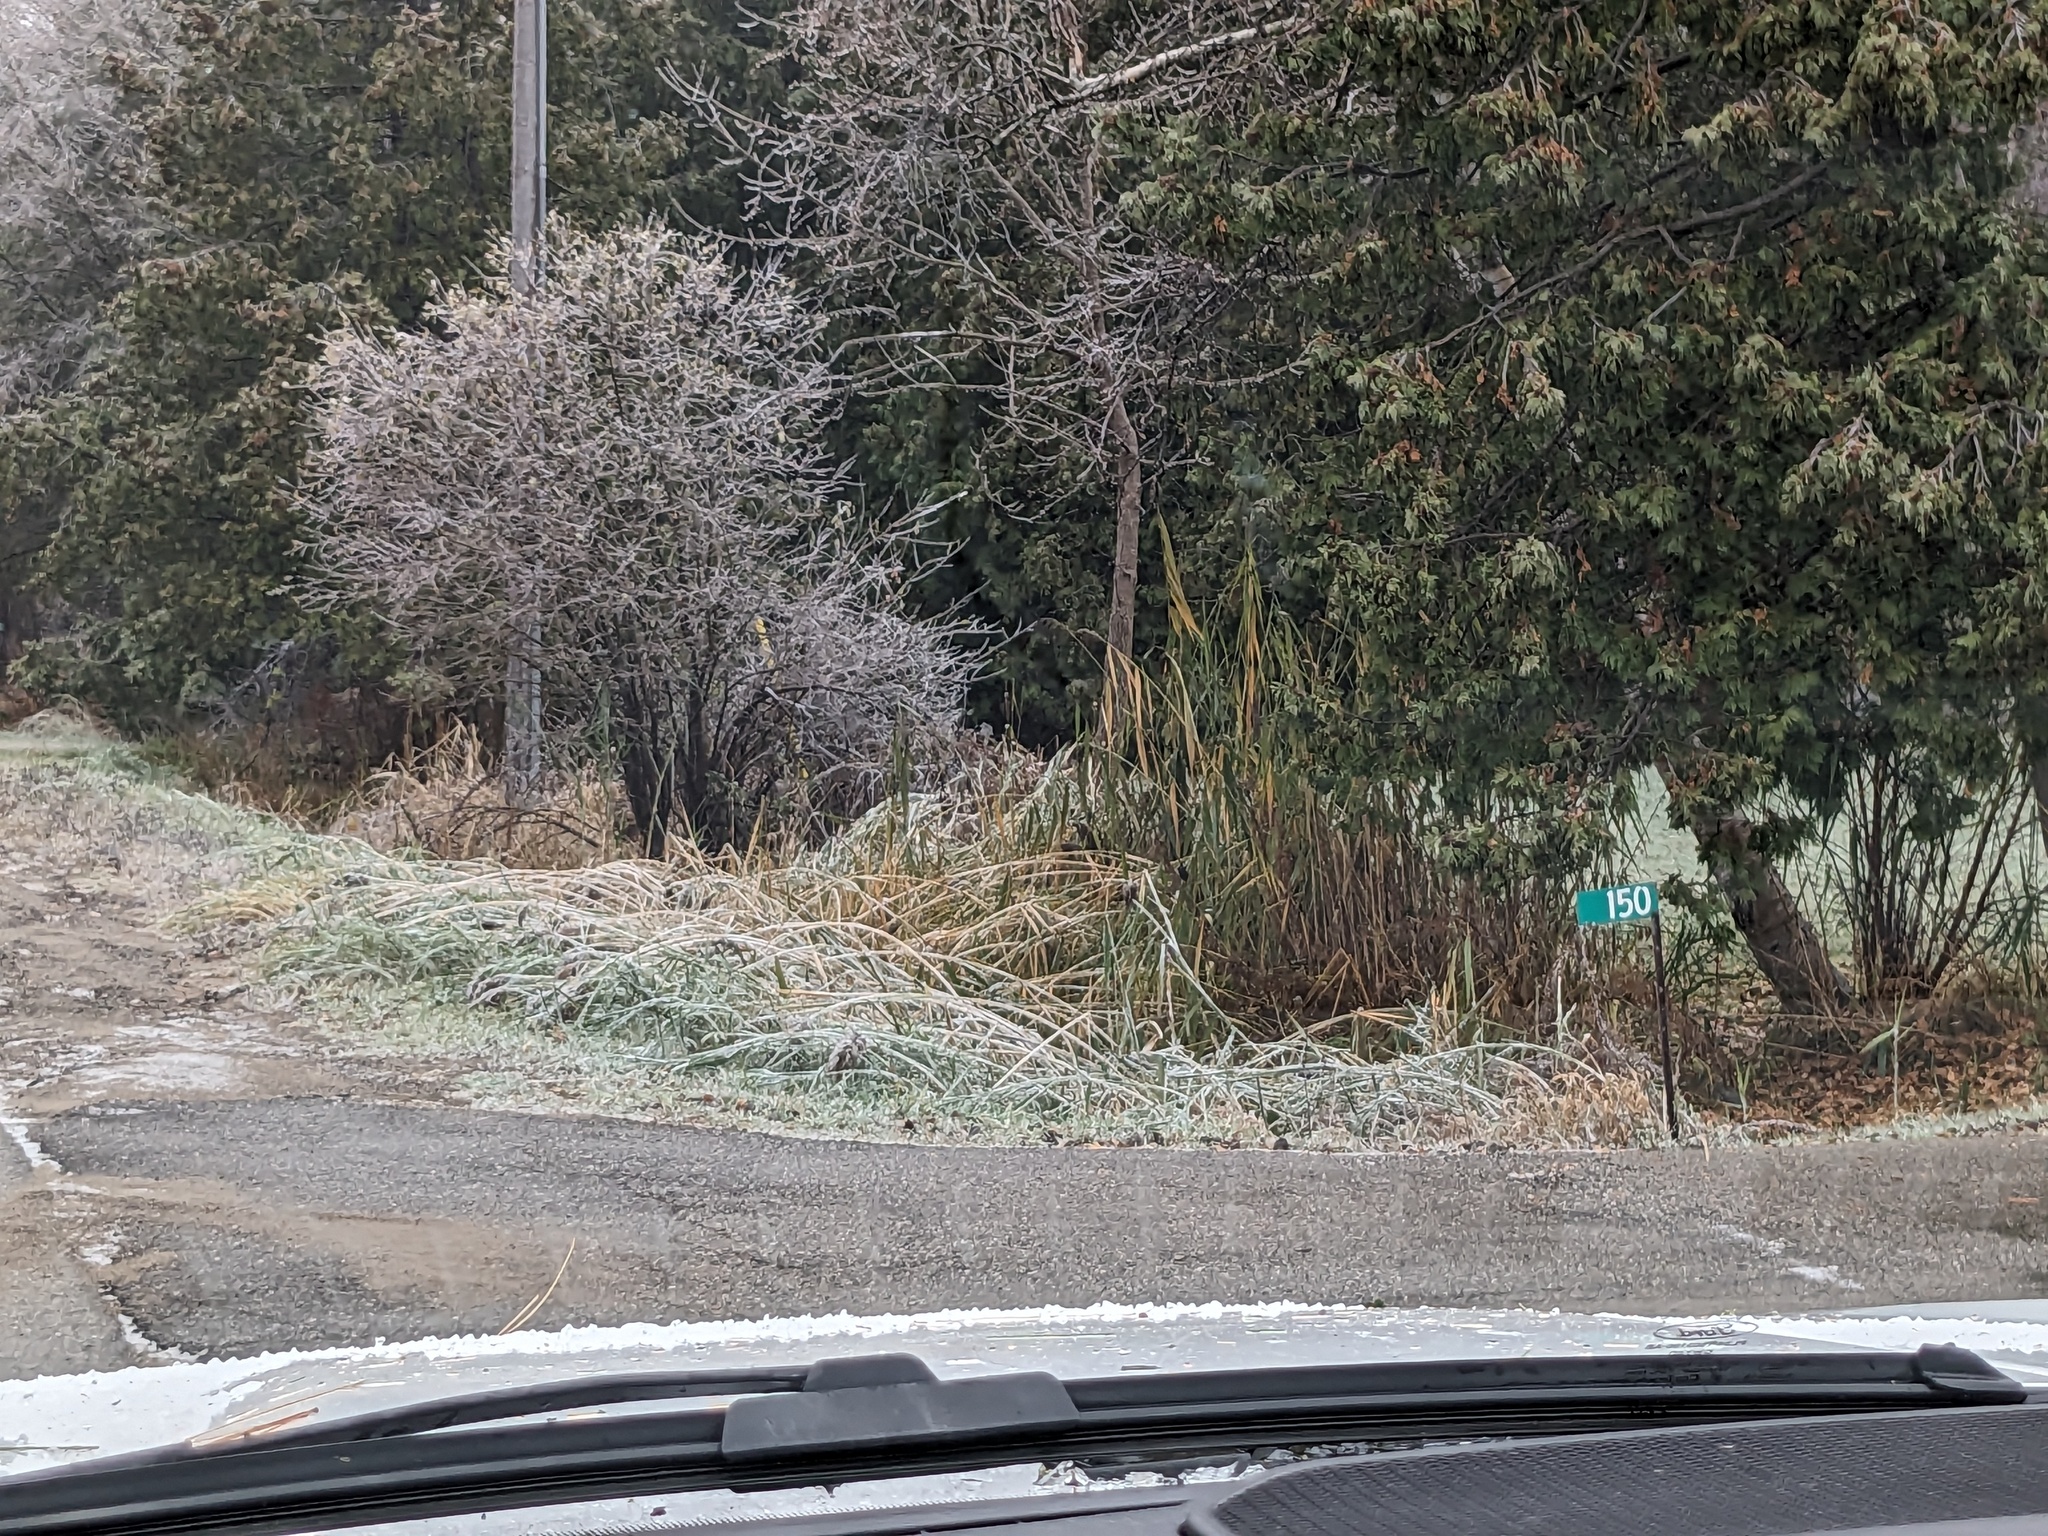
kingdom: Plantae
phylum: Tracheophyta
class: Liliopsida
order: Poales
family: Poaceae
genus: Phragmites
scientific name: Phragmites australis
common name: Common reed
